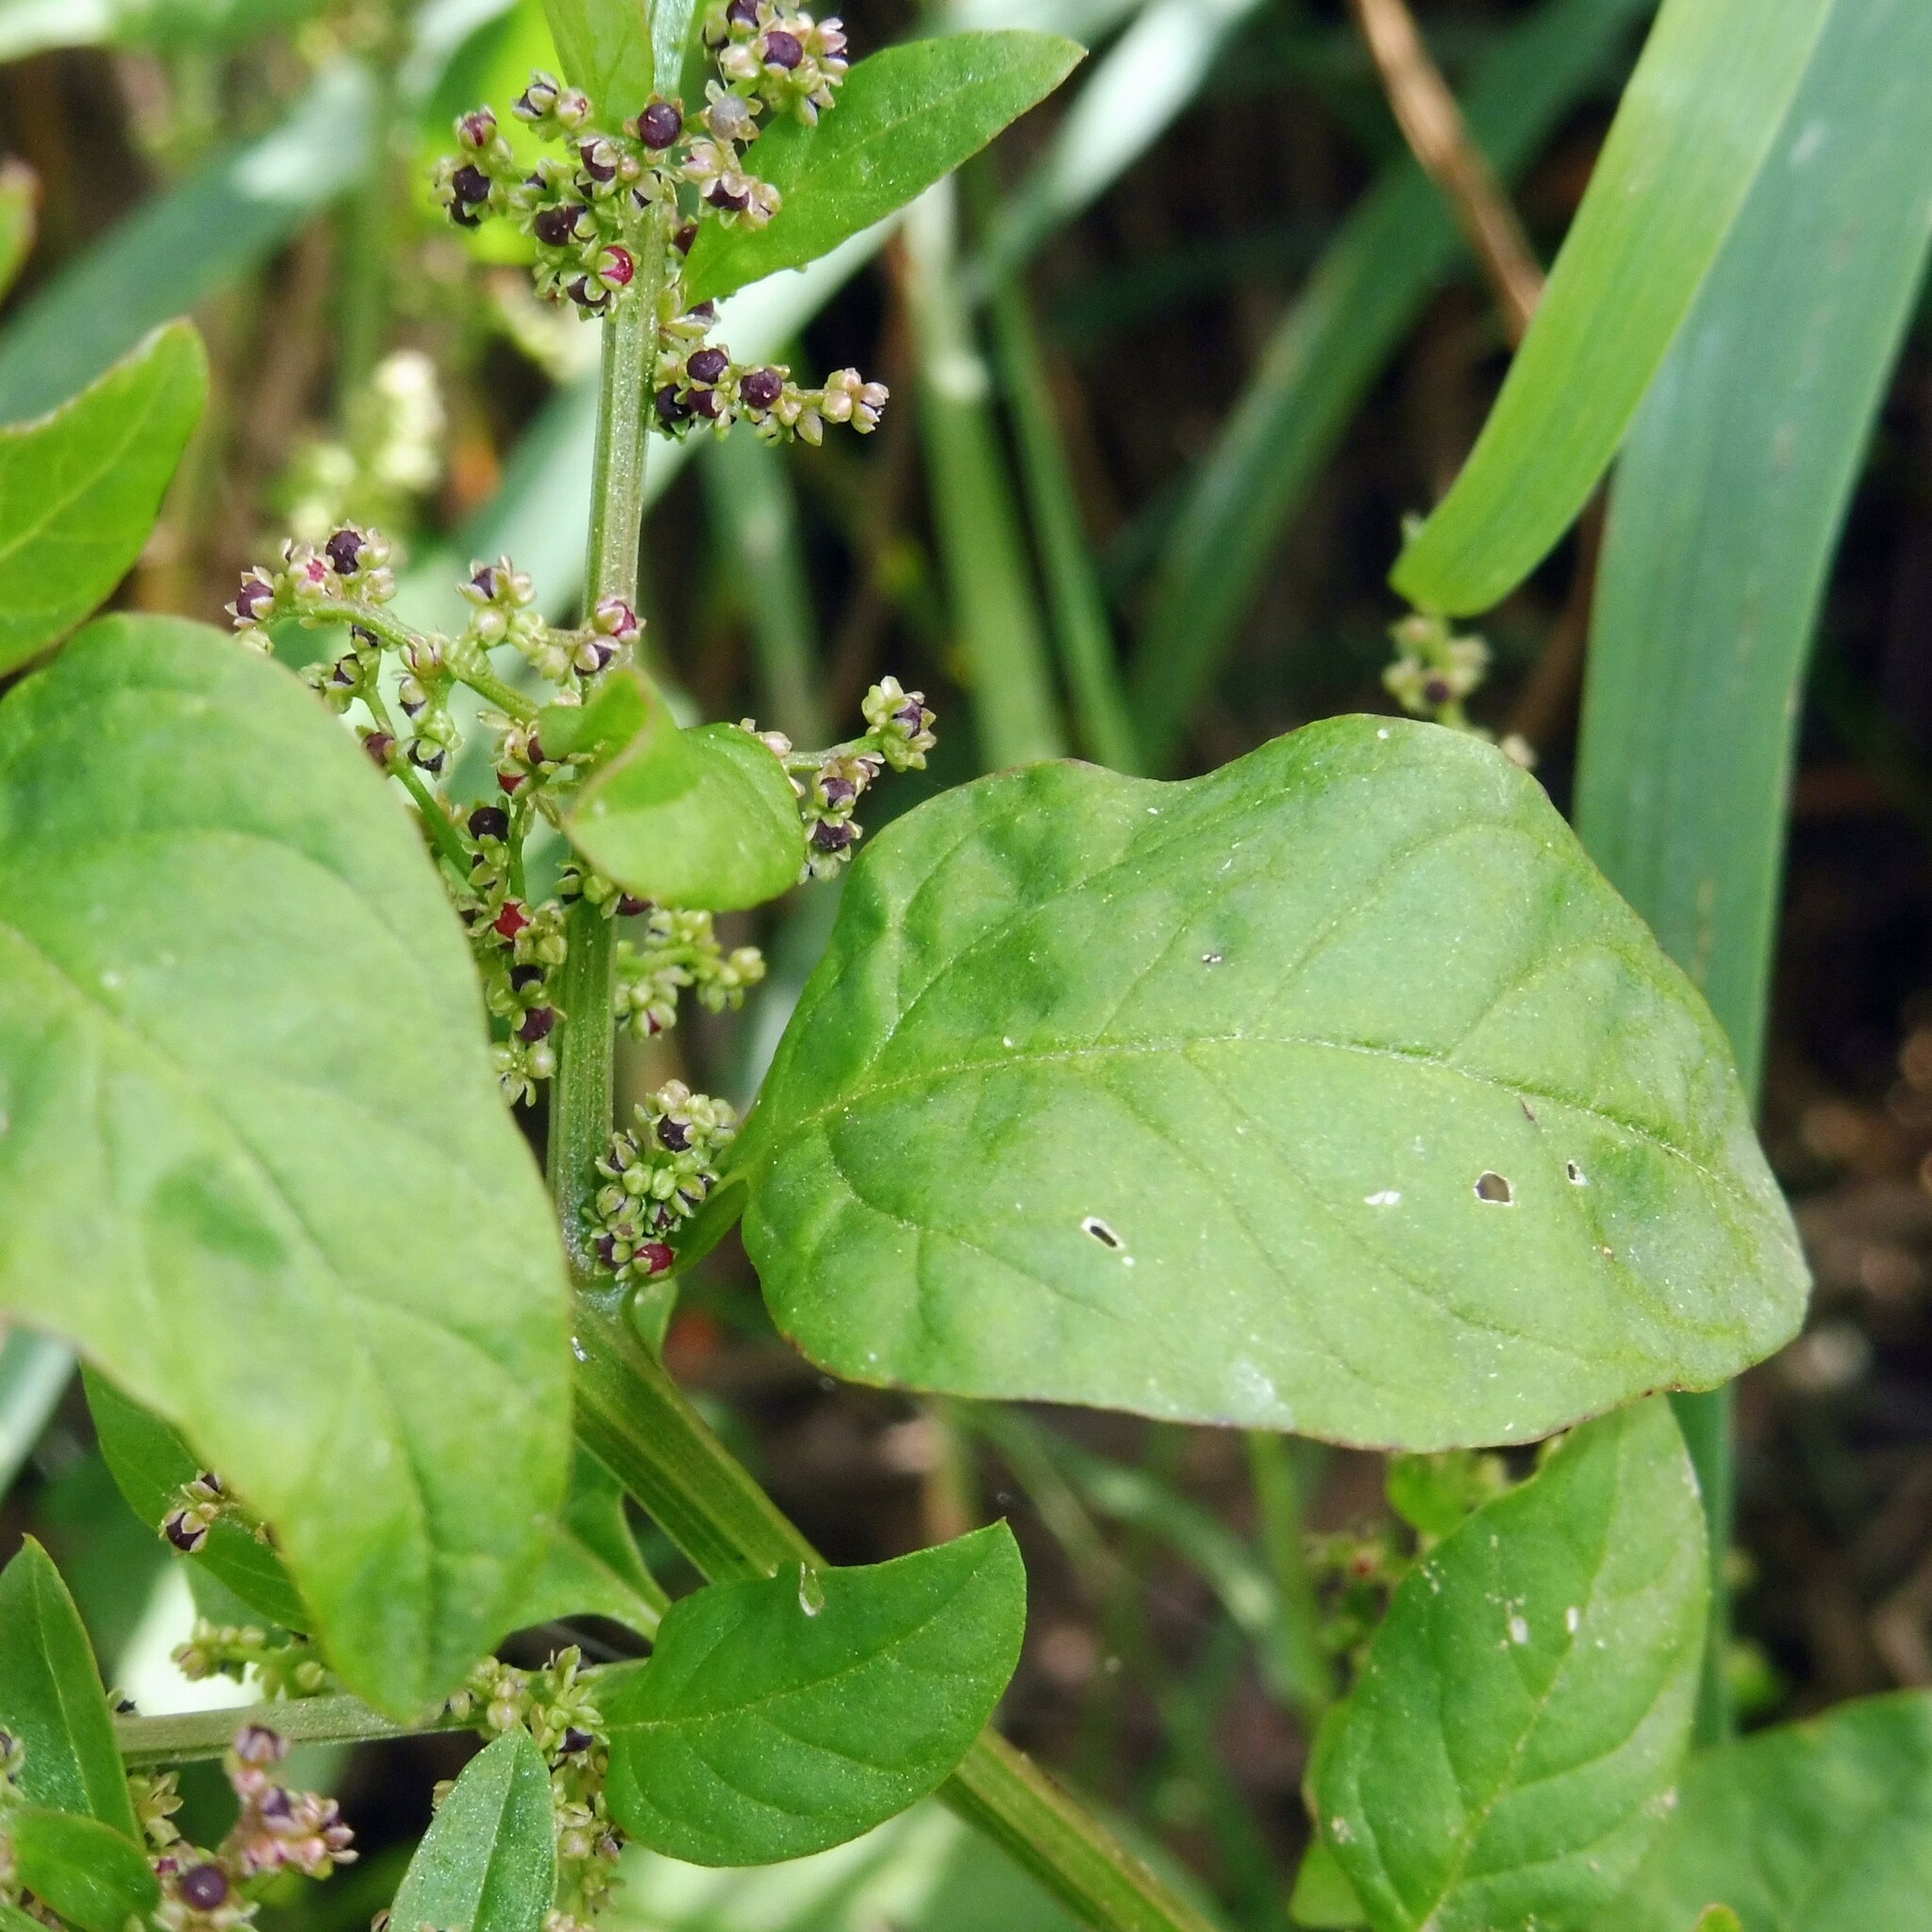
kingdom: Plantae
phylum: Tracheophyta
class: Magnoliopsida
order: Caryophyllales
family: Amaranthaceae
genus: Lipandra
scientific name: Lipandra polysperma
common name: Many-seed goosefoot
